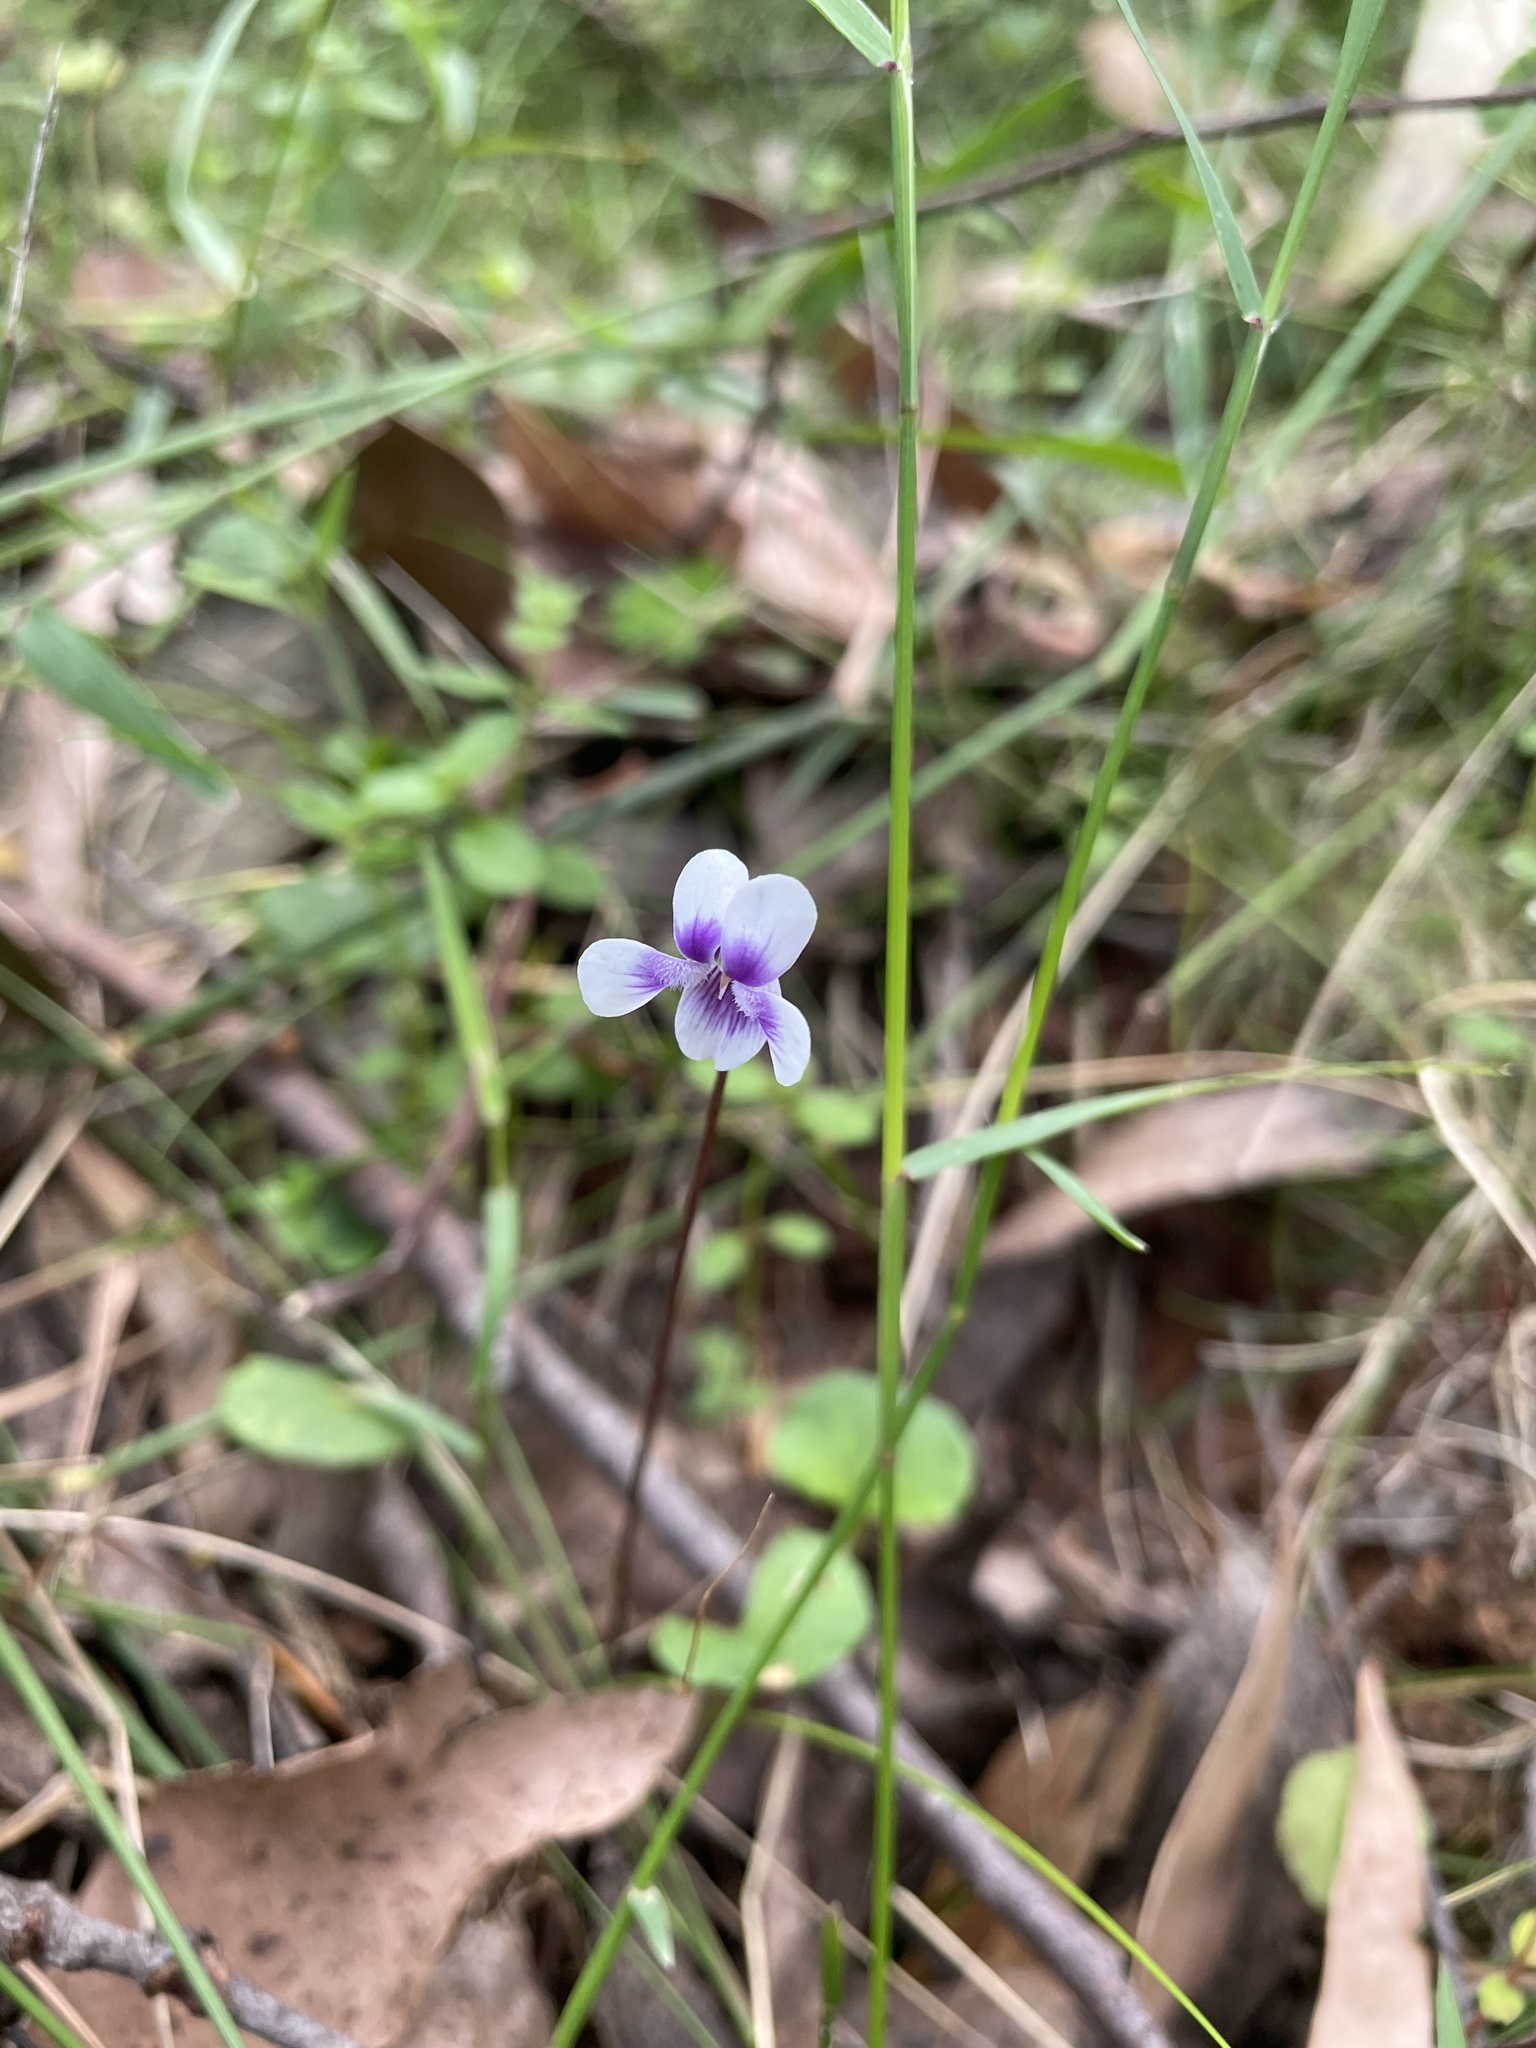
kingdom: Plantae
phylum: Tracheophyta
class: Magnoliopsida
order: Malpighiales
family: Violaceae
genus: Viola
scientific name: Viola hederacea
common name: Australian violet
